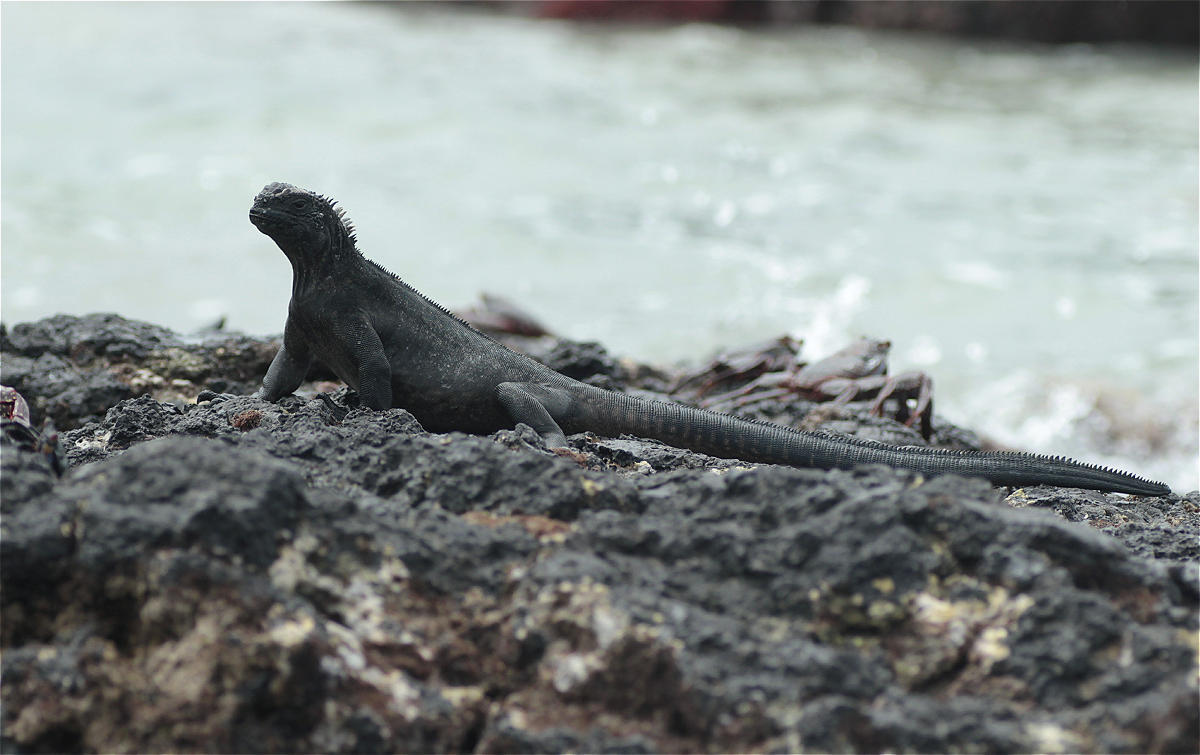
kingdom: Animalia
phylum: Chordata
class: Squamata
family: Iguanidae
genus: Amblyrhynchus
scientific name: Amblyrhynchus cristatus
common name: Marine iguana
